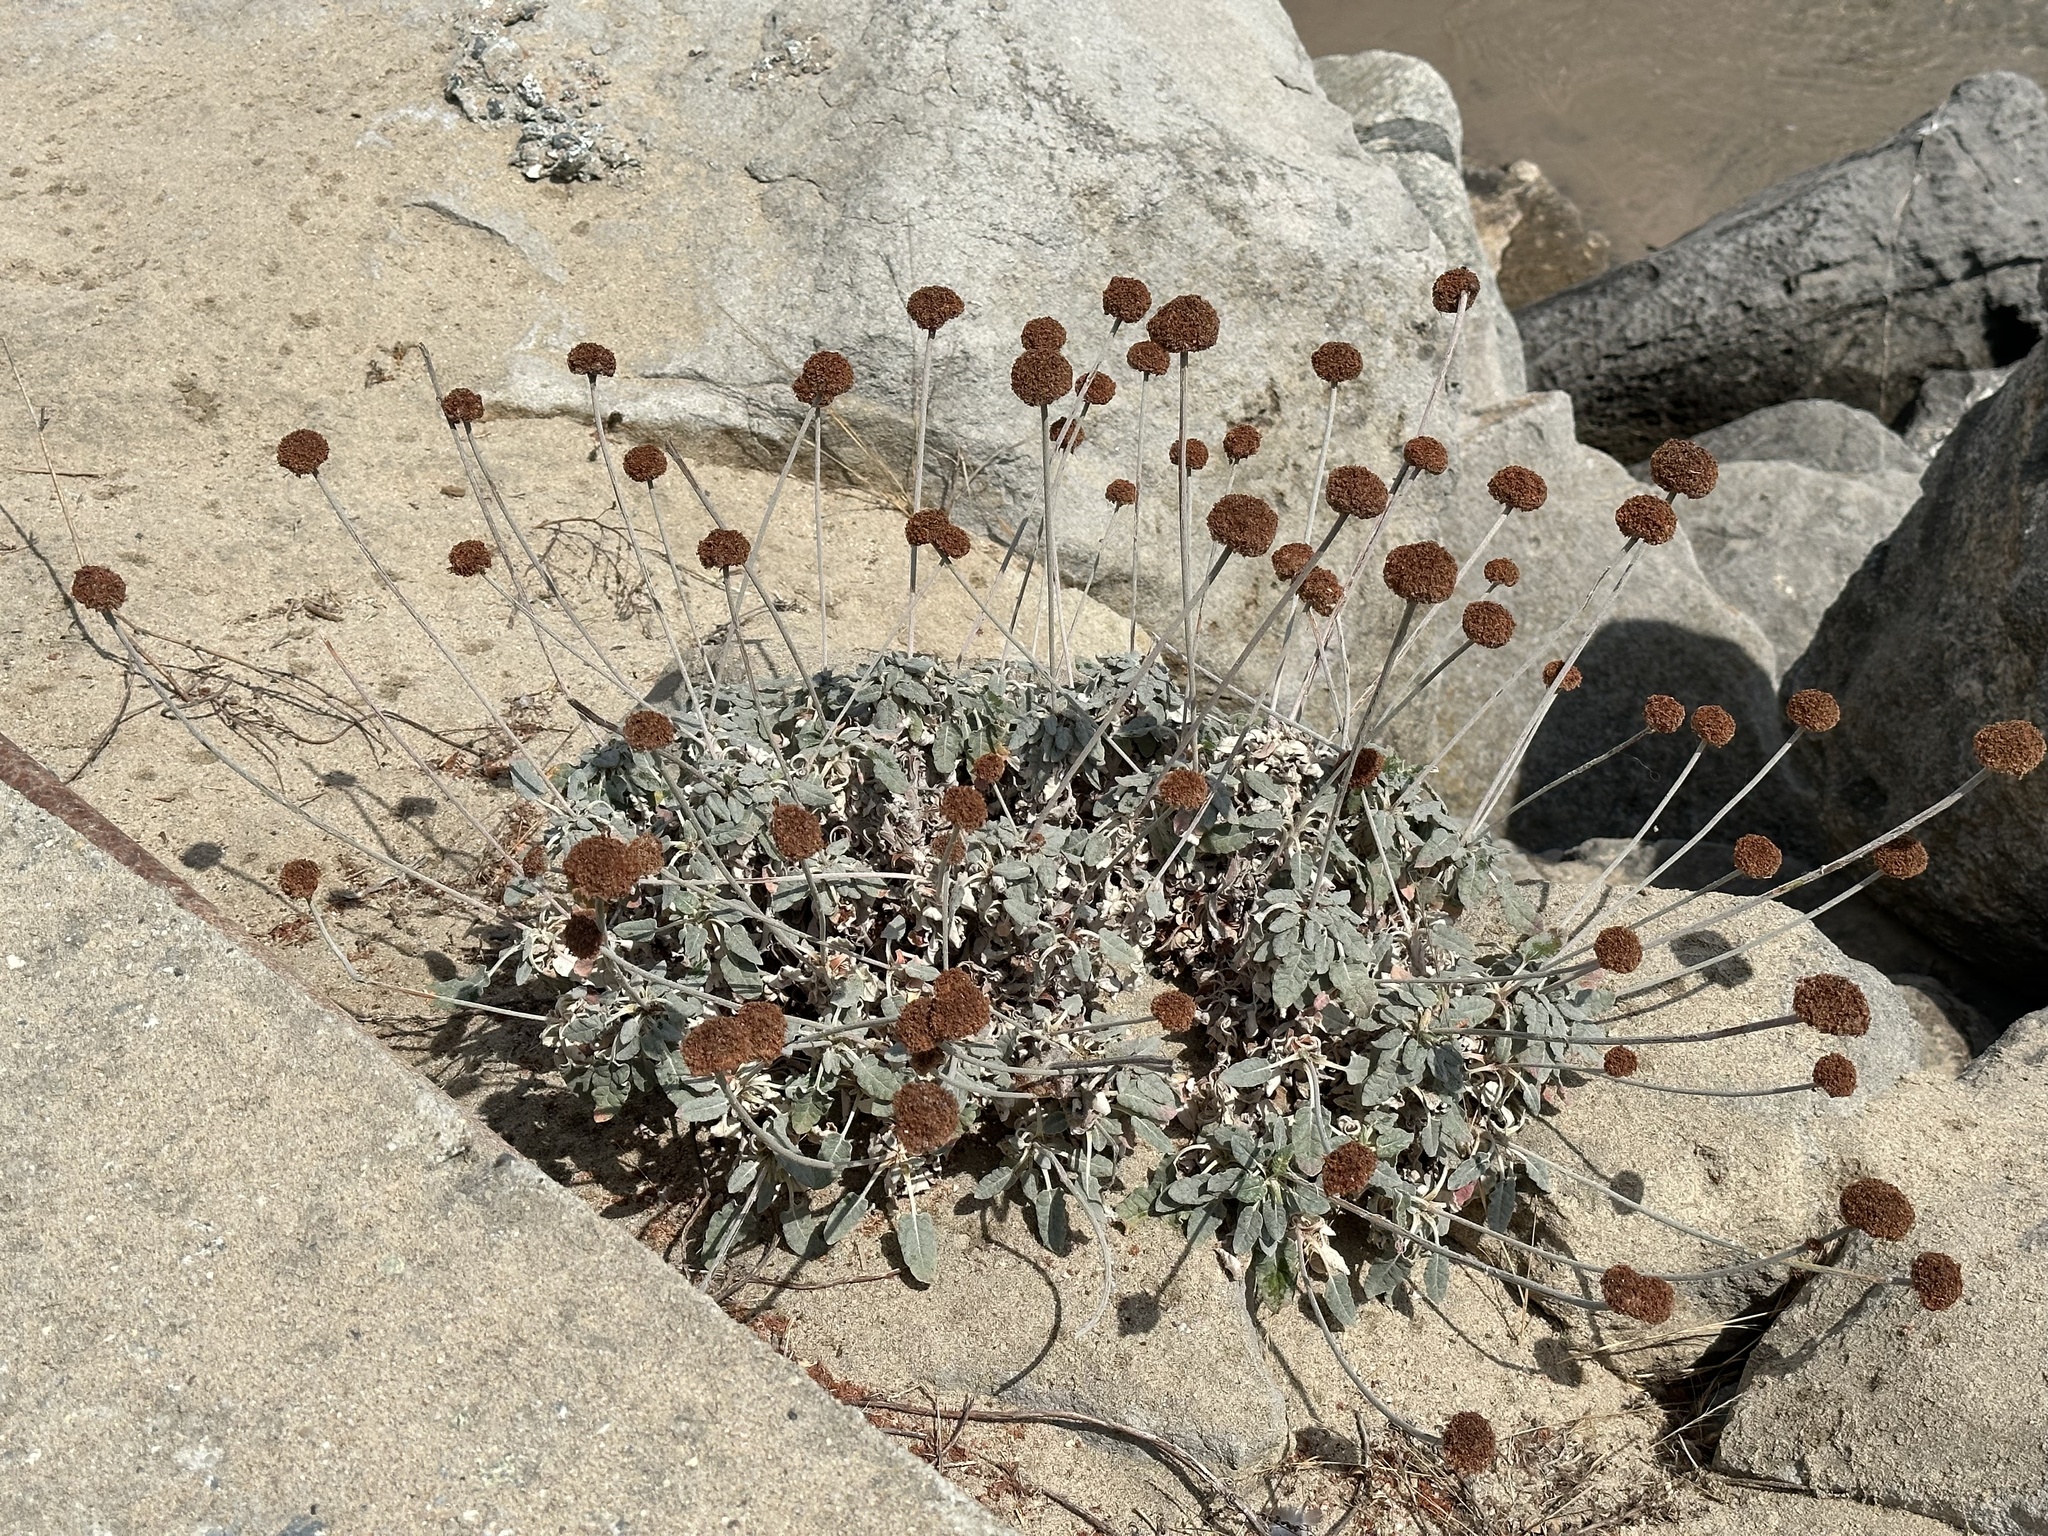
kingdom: Plantae
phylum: Tracheophyta
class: Magnoliopsida
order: Caryophyllales
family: Polygonaceae
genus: Eriogonum
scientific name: Eriogonum latifolium
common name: Seaside wild buckwheat
